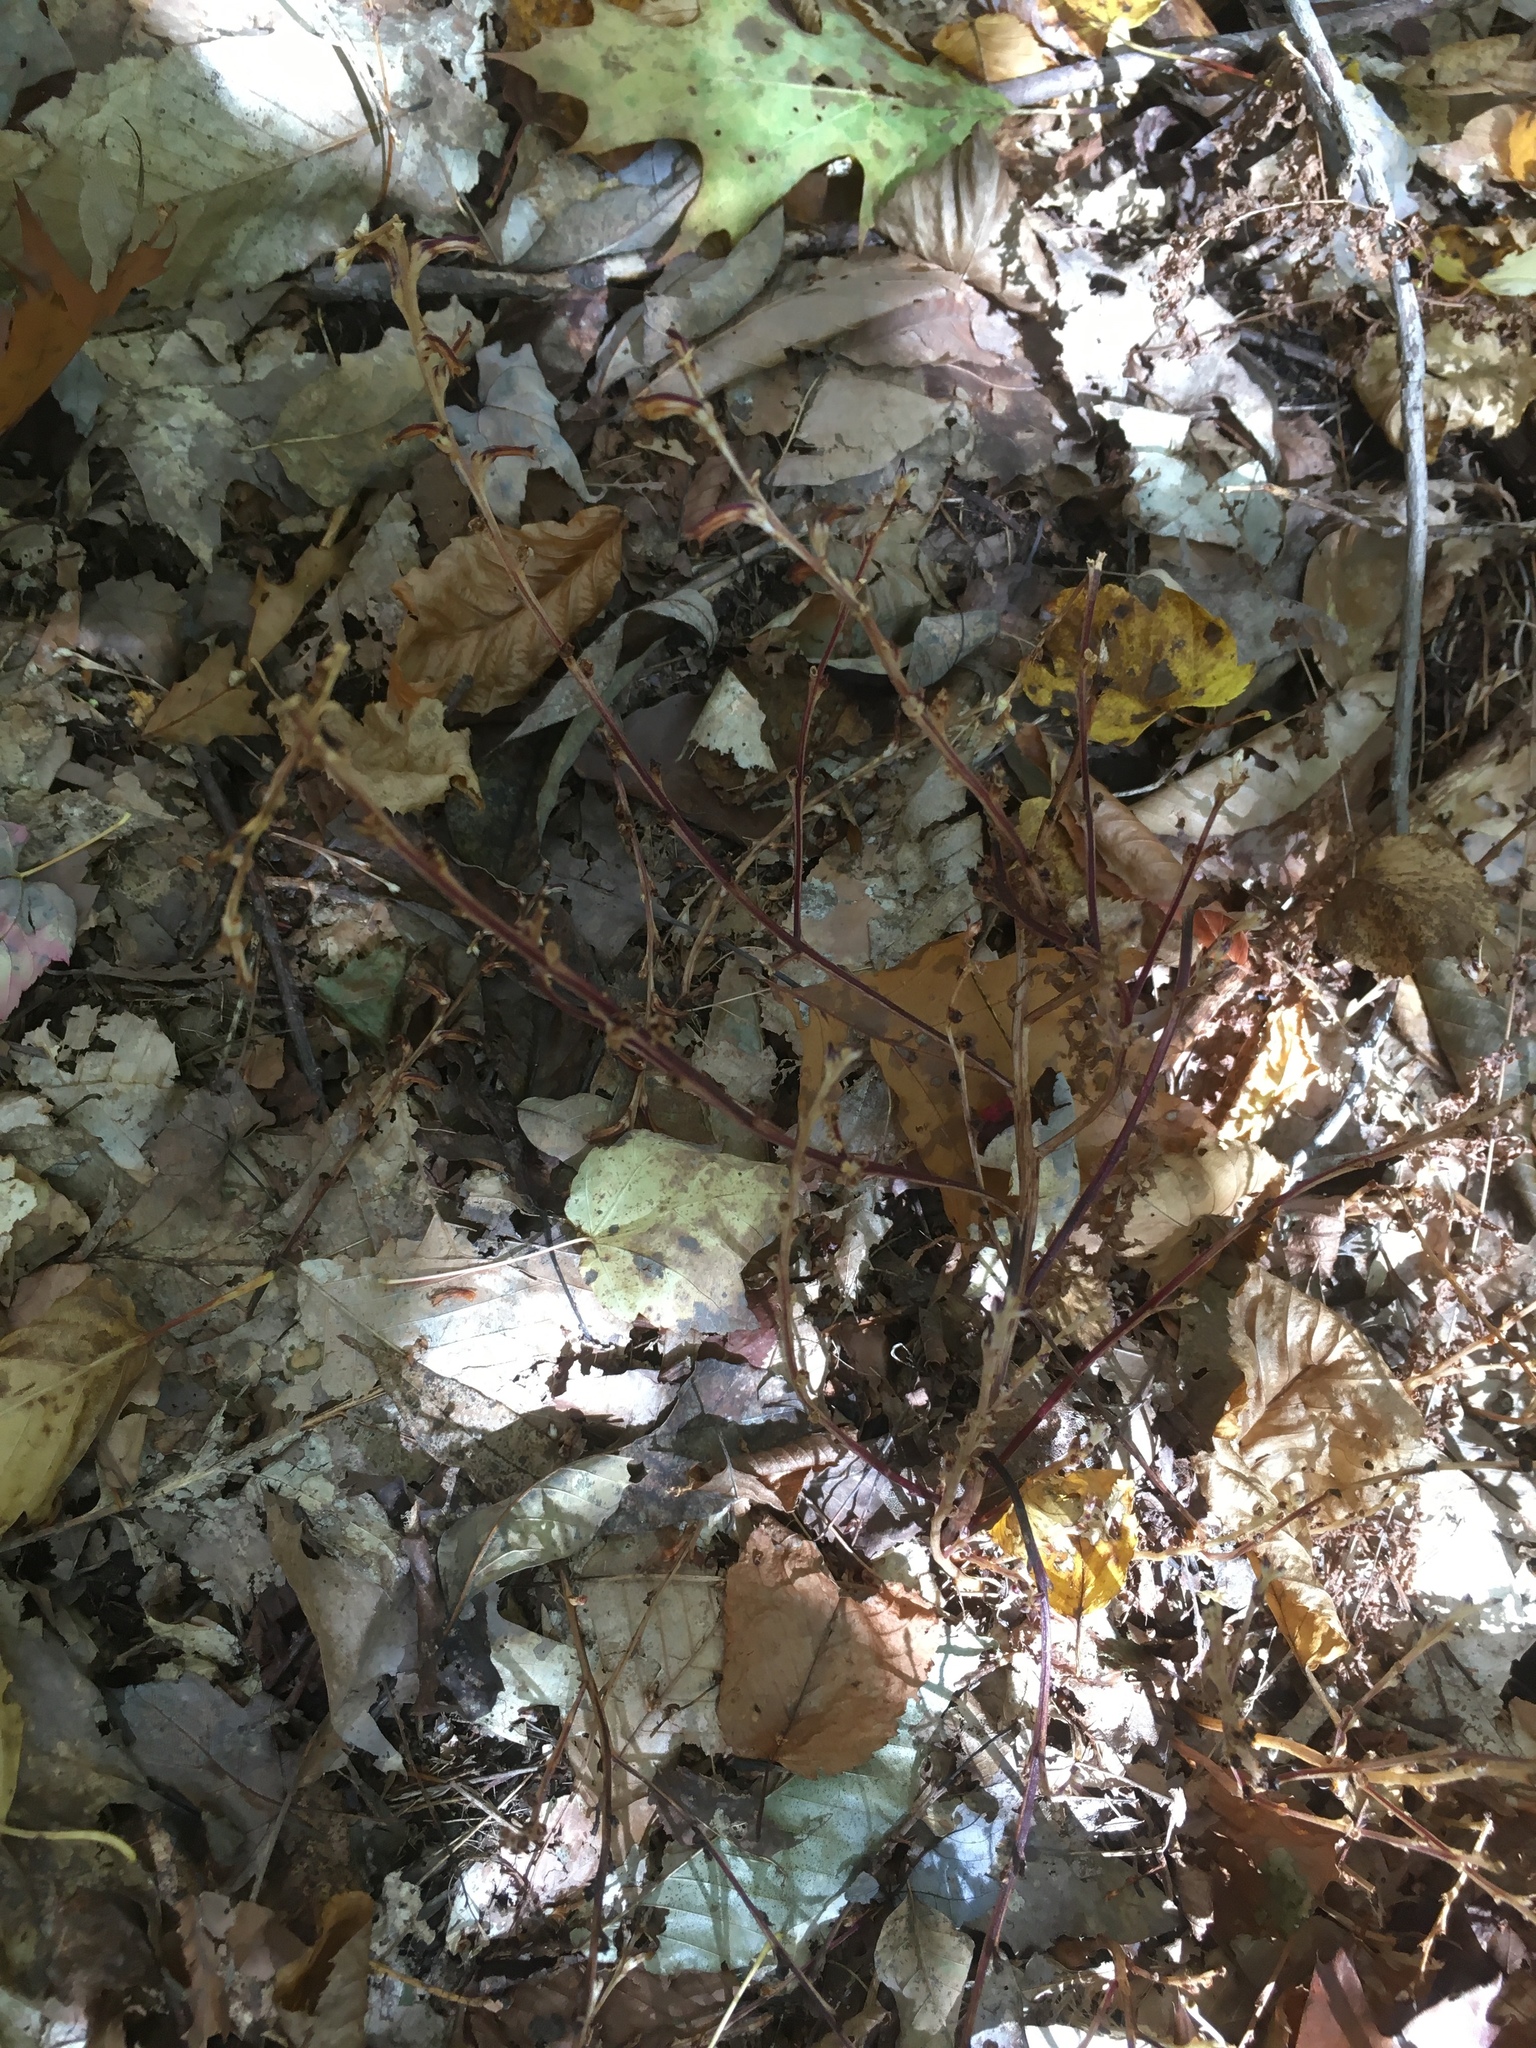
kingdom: Plantae
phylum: Tracheophyta
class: Magnoliopsida
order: Lamiales
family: Orobanchaceae
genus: Epifagus
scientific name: Epifagus virginiana
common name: Beechdrops
